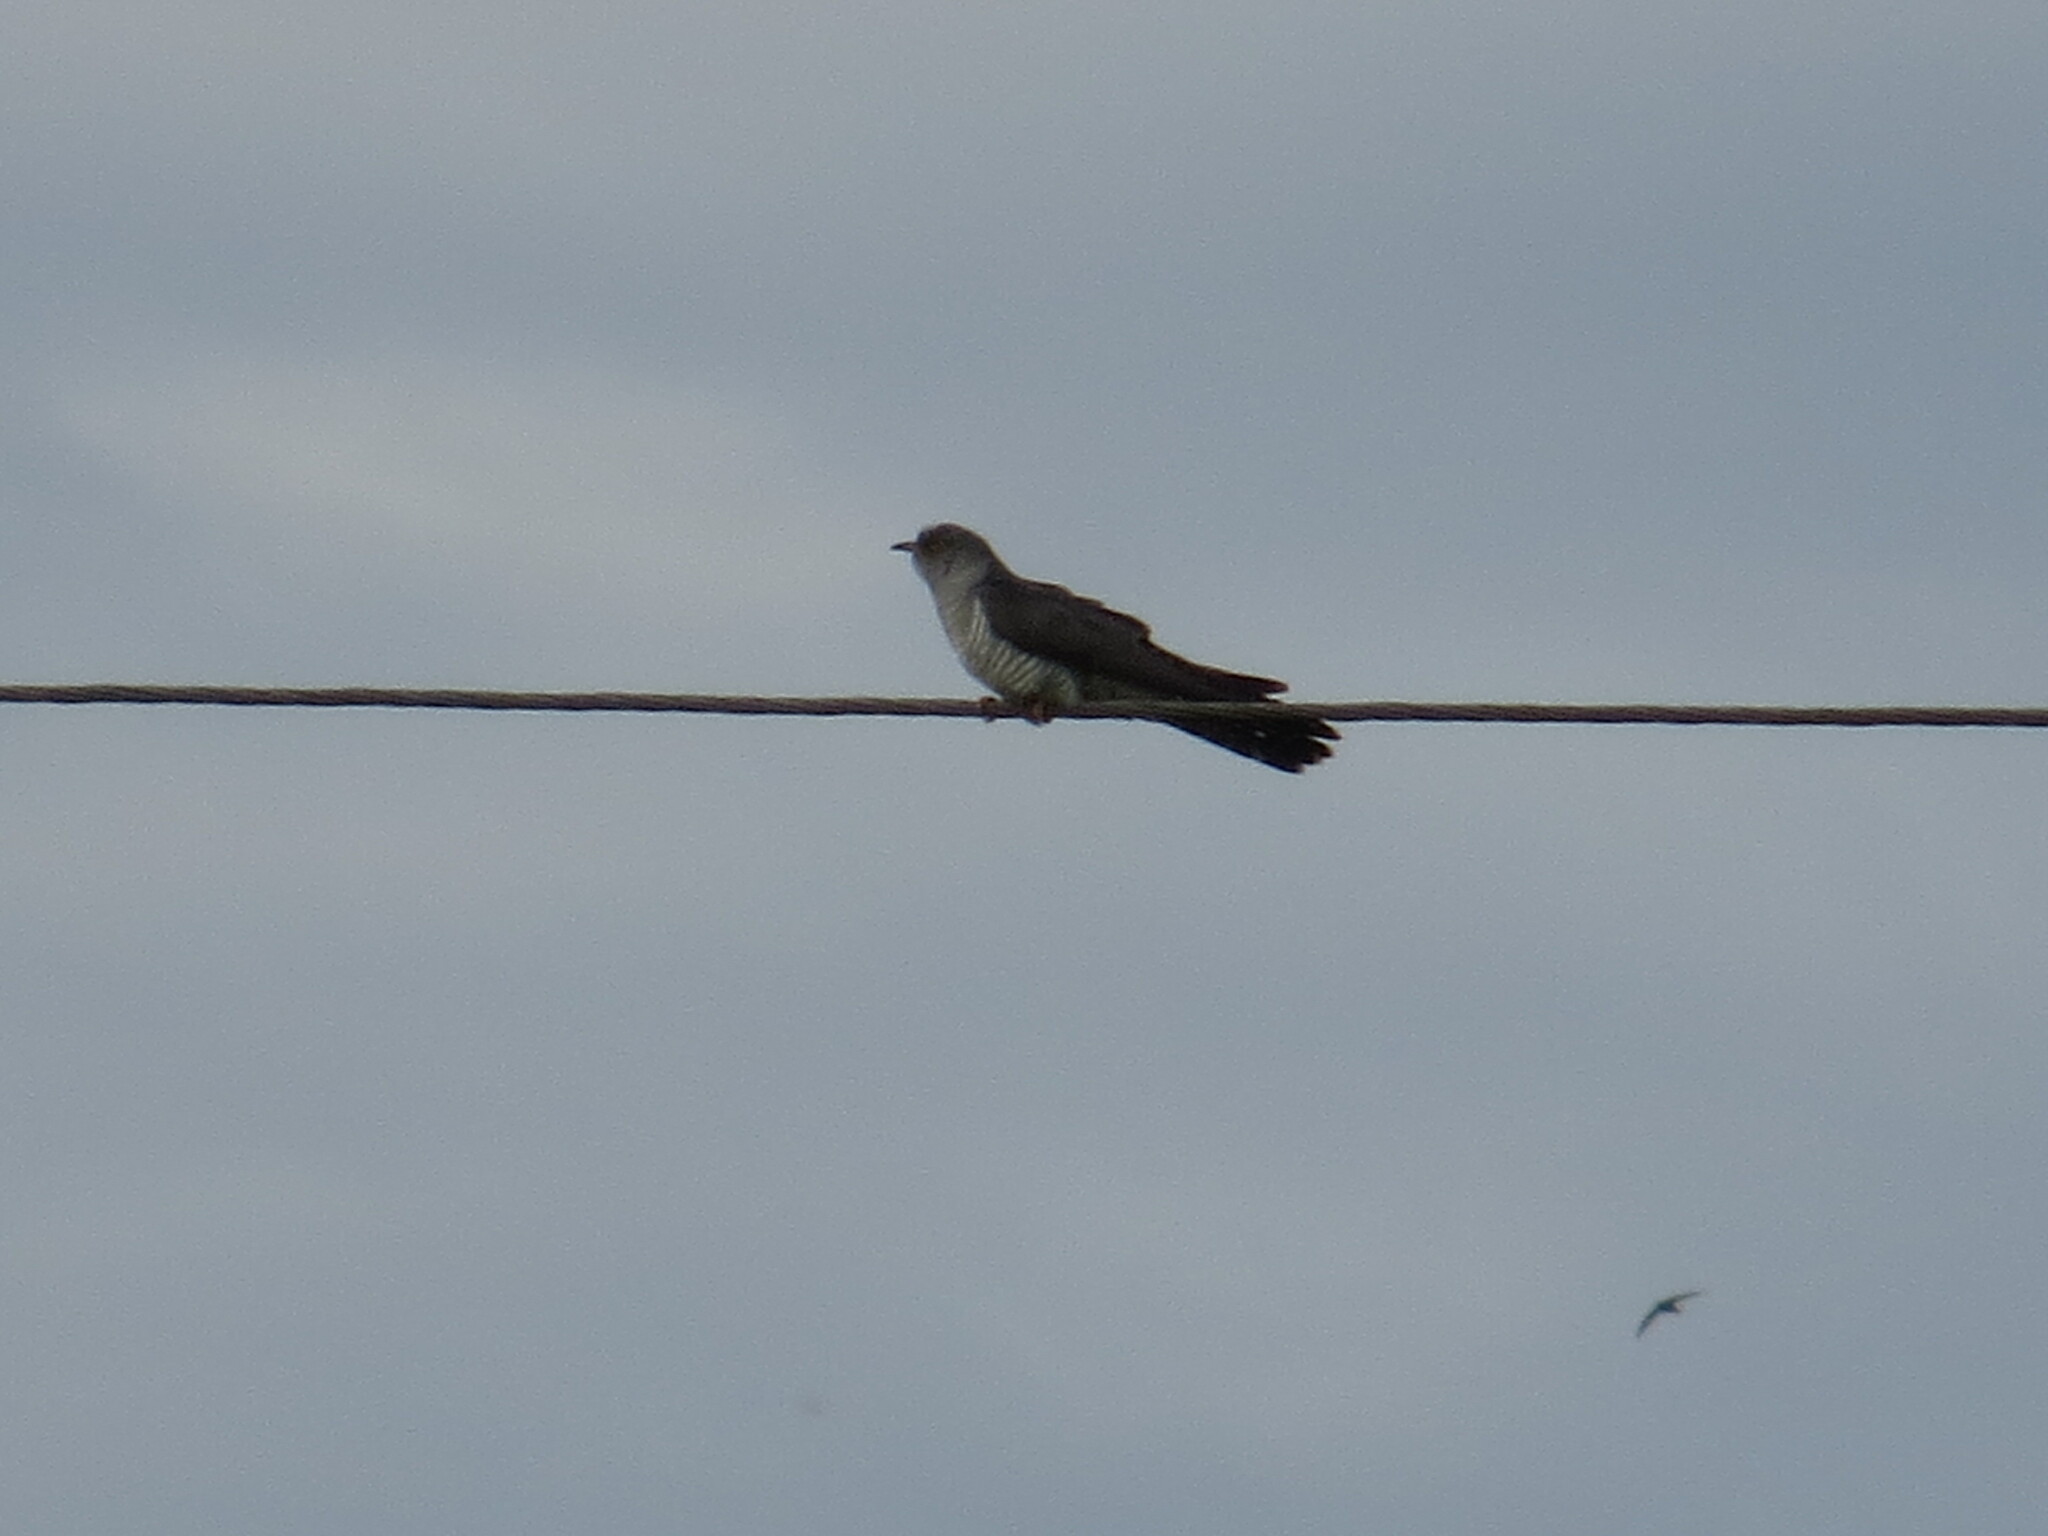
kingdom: Animalia
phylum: Chordata
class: Aves
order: Cuculiformes
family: Cuculidae
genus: Cuculus
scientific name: Cuculus canorus
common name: Common cuckoo
